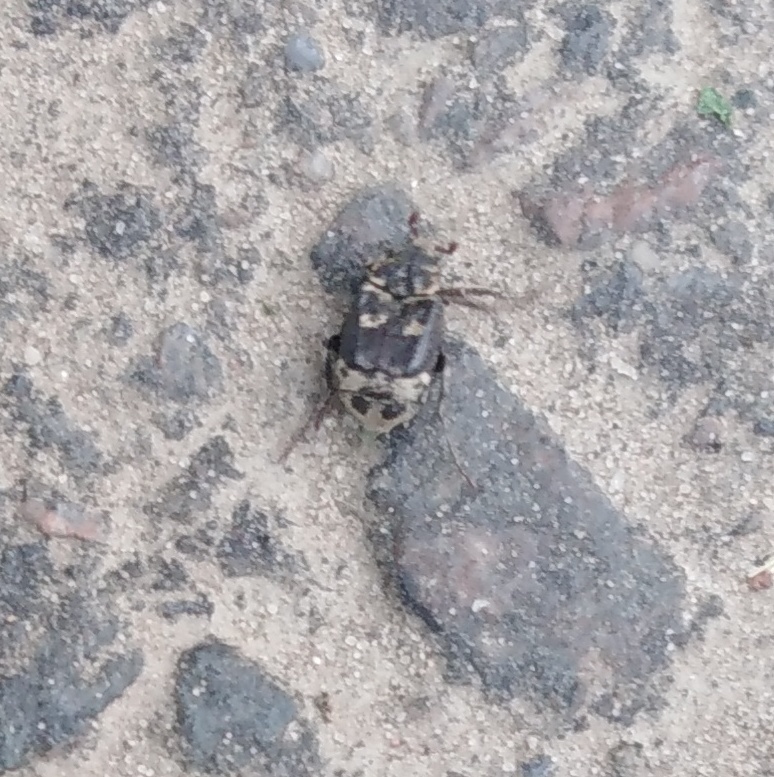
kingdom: Animalia
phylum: Arthropoda
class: Insecta
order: Coleoptera
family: Scarabaeidae
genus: Valgus
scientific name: Valgus hemipterus
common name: Bug flower chafer
